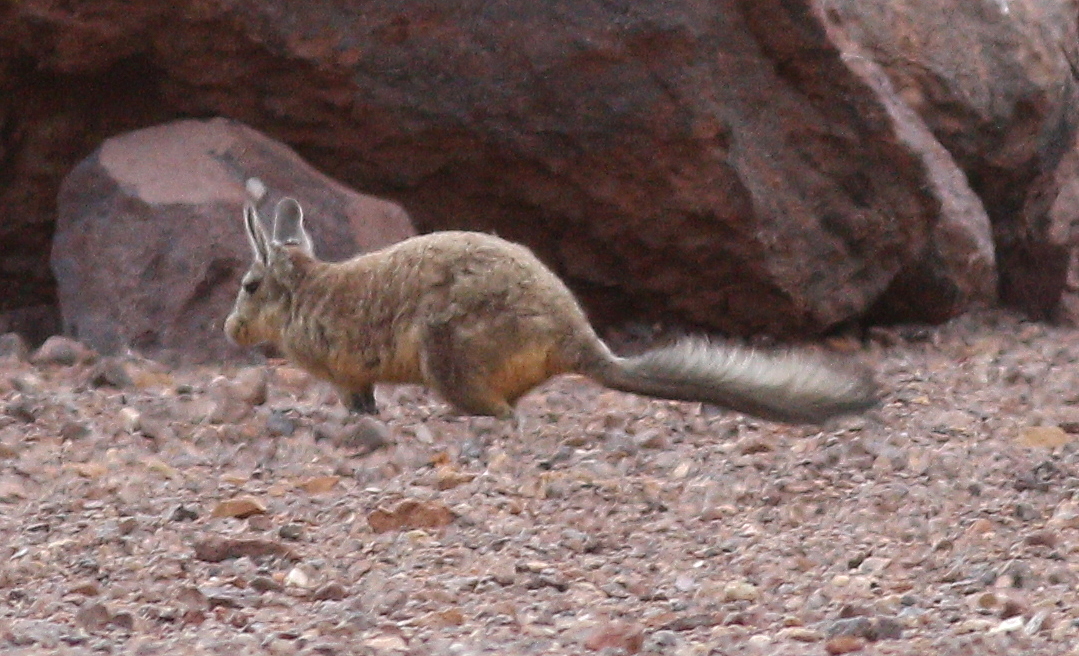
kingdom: Animalia
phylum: Chordata
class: Mammalia
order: Rodentia
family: Chinchillidae
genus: Lagidium
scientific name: Lagidium viscacia
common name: Southern viscacha
